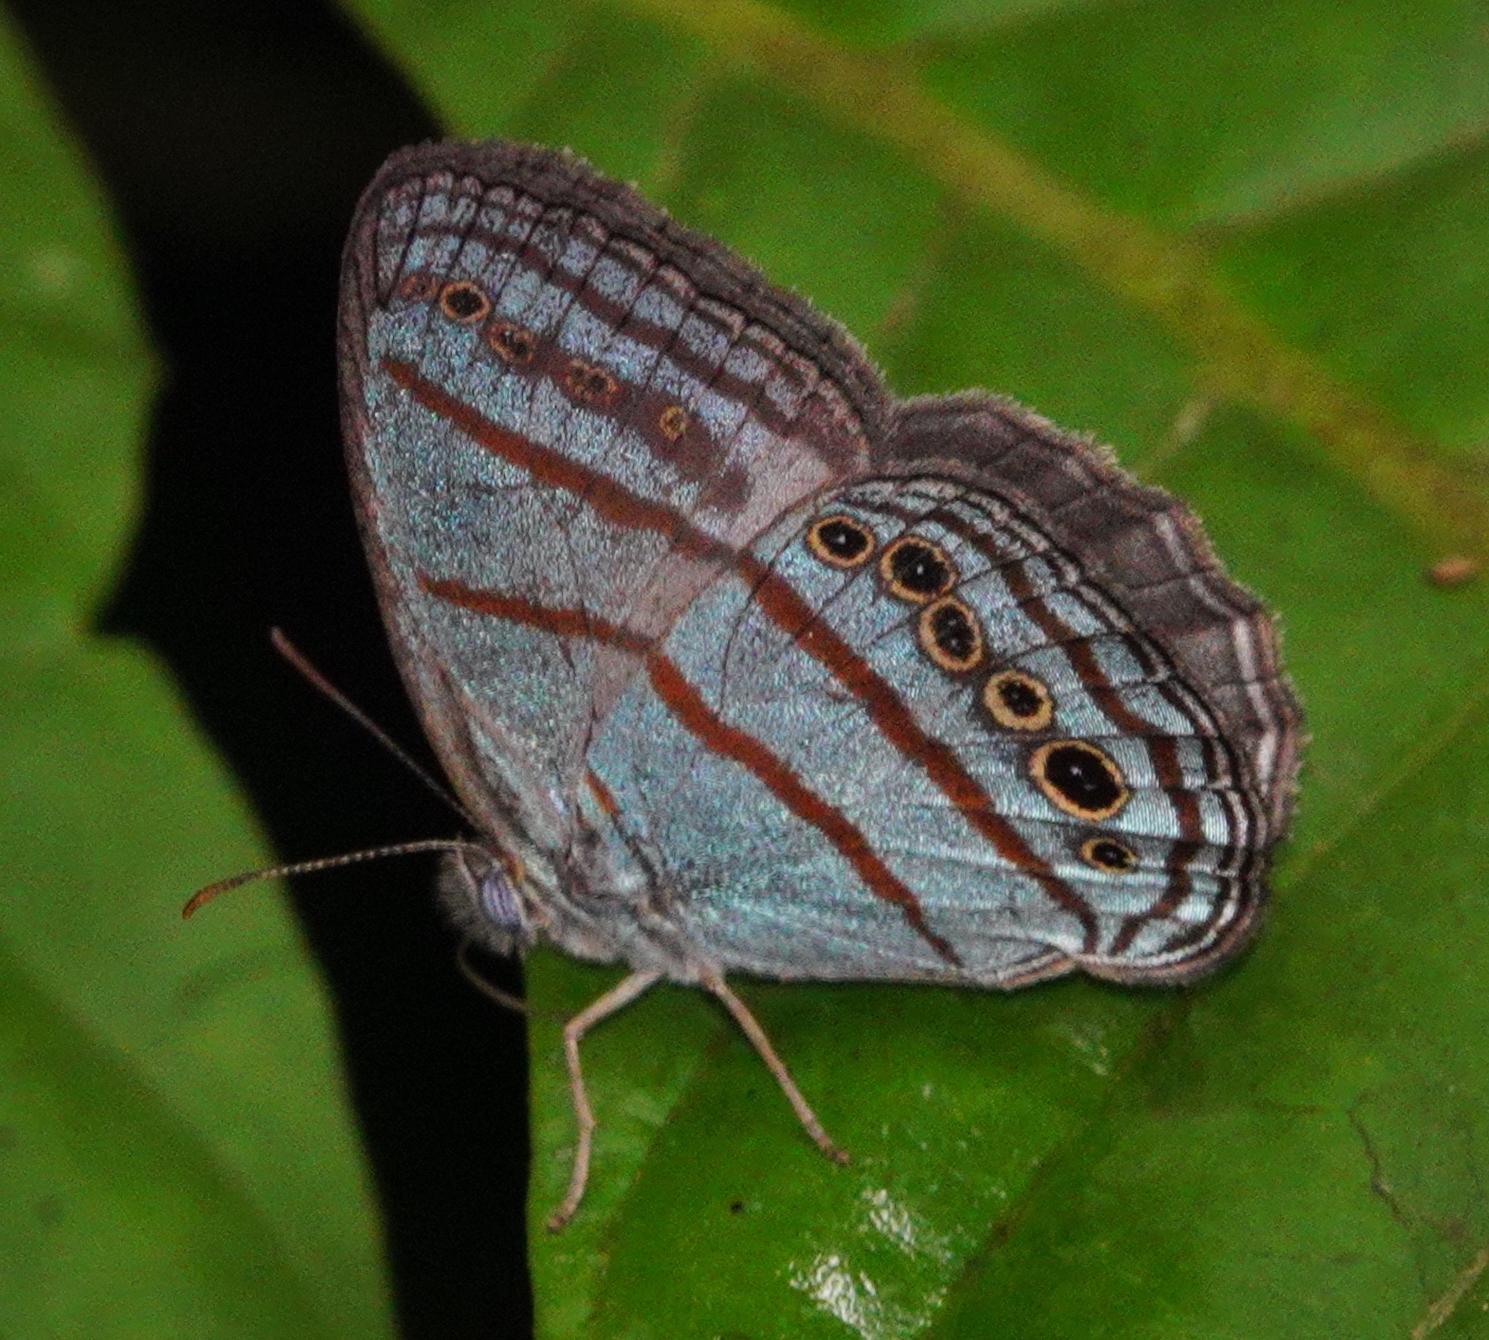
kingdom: Animalia
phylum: Arthropoda
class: Insecta
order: Lepidoptera
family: Nymphalidae
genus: Caeruleuptychia
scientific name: Caeruleuptychia twalela
